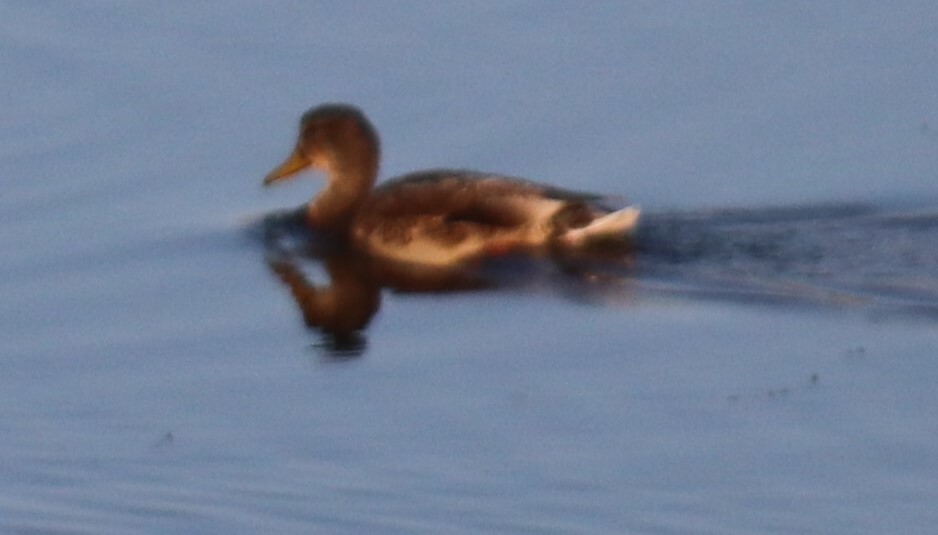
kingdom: Animalia
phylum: Chordata
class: Aves
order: Anseriformes
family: Anatidae
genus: Anas
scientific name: Anas platyrhynchos
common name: Mallard
